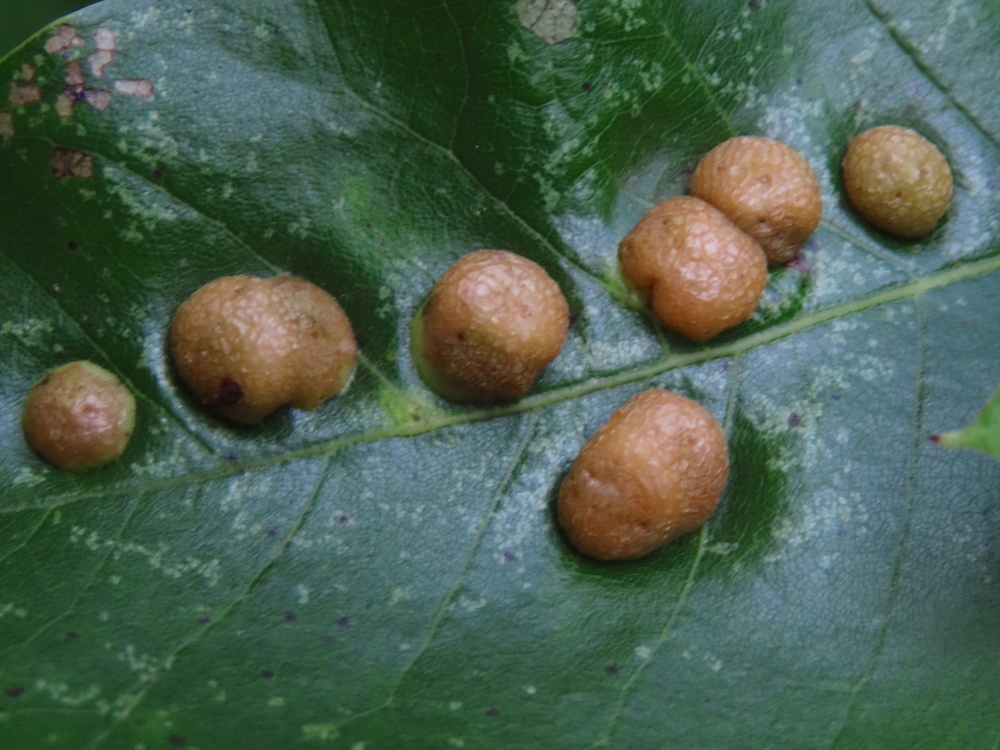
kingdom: Animalia
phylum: Arthropoda
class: Insecta
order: Diptera
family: Cecidomyiidae
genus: Polystepha
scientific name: Polystepha pilulae
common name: Oak leaf gall midge
